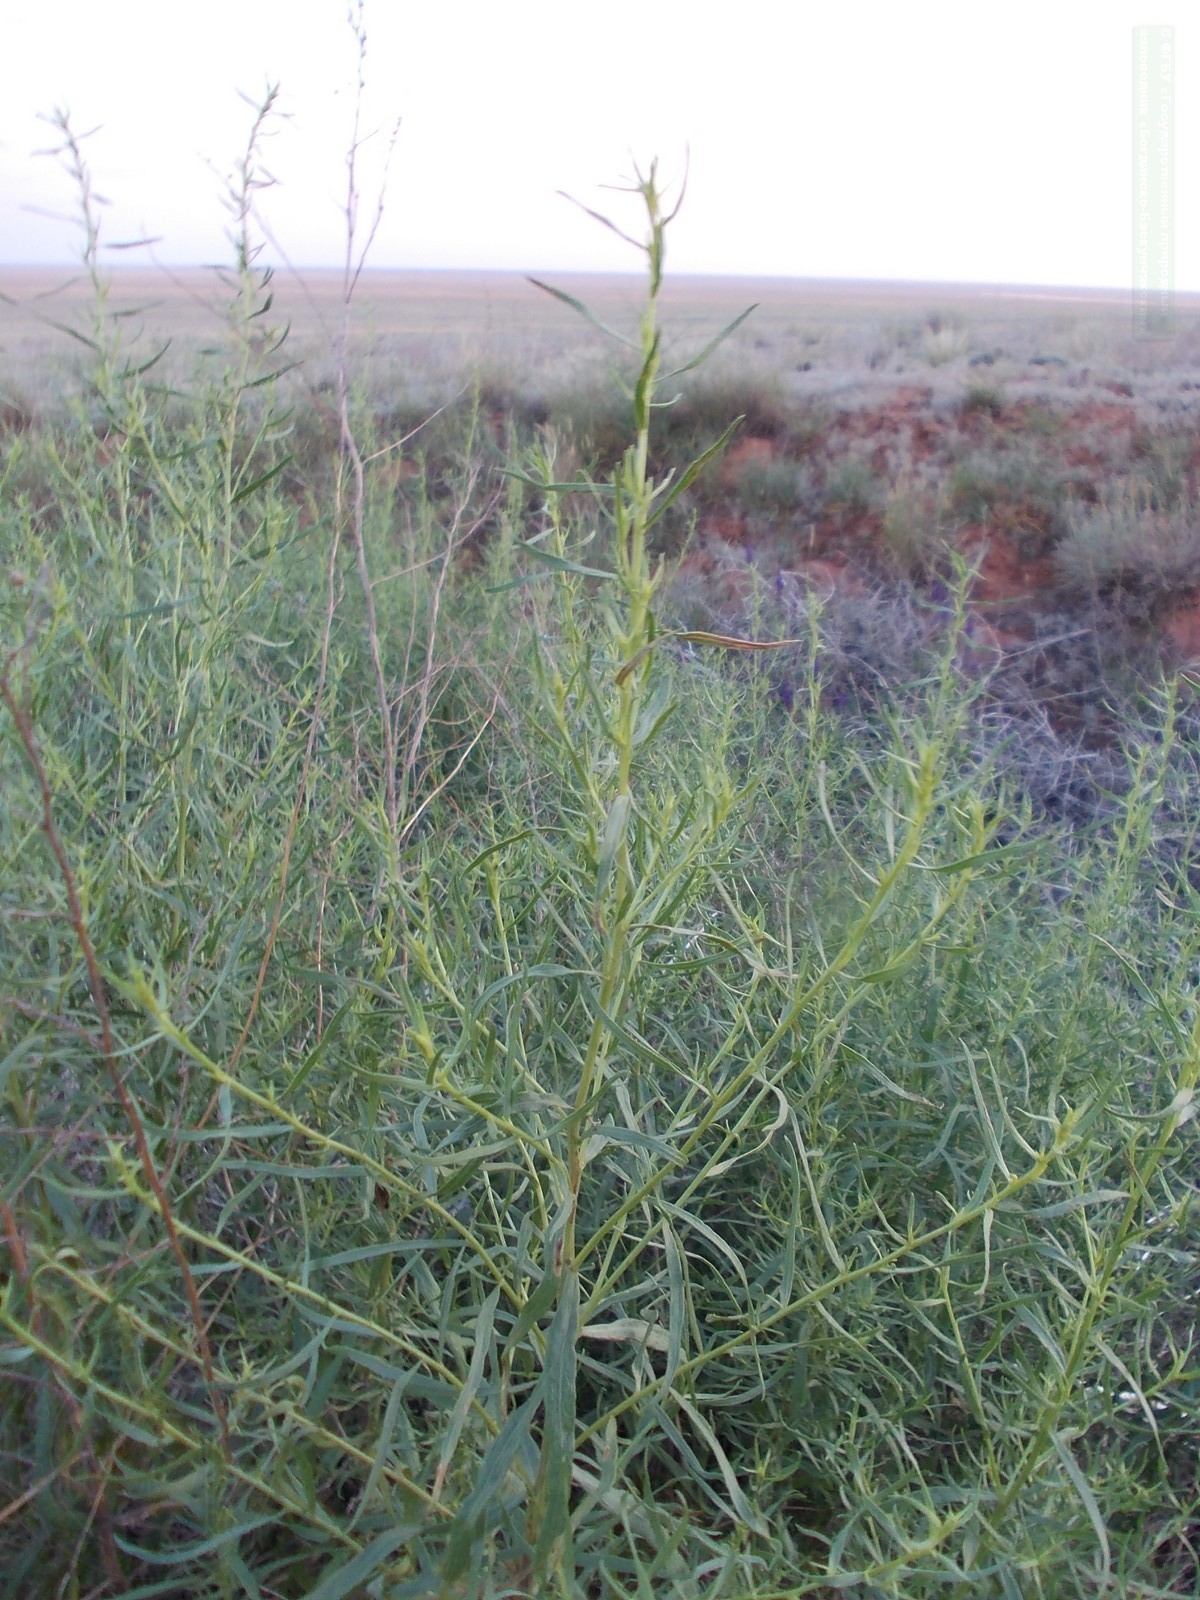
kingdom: Plantae
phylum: Tracheophyta
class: Magnoliopsida
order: Asterales
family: Asteraceae
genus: Artemisia
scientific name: Artemisia dracunculus
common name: Tarragon
